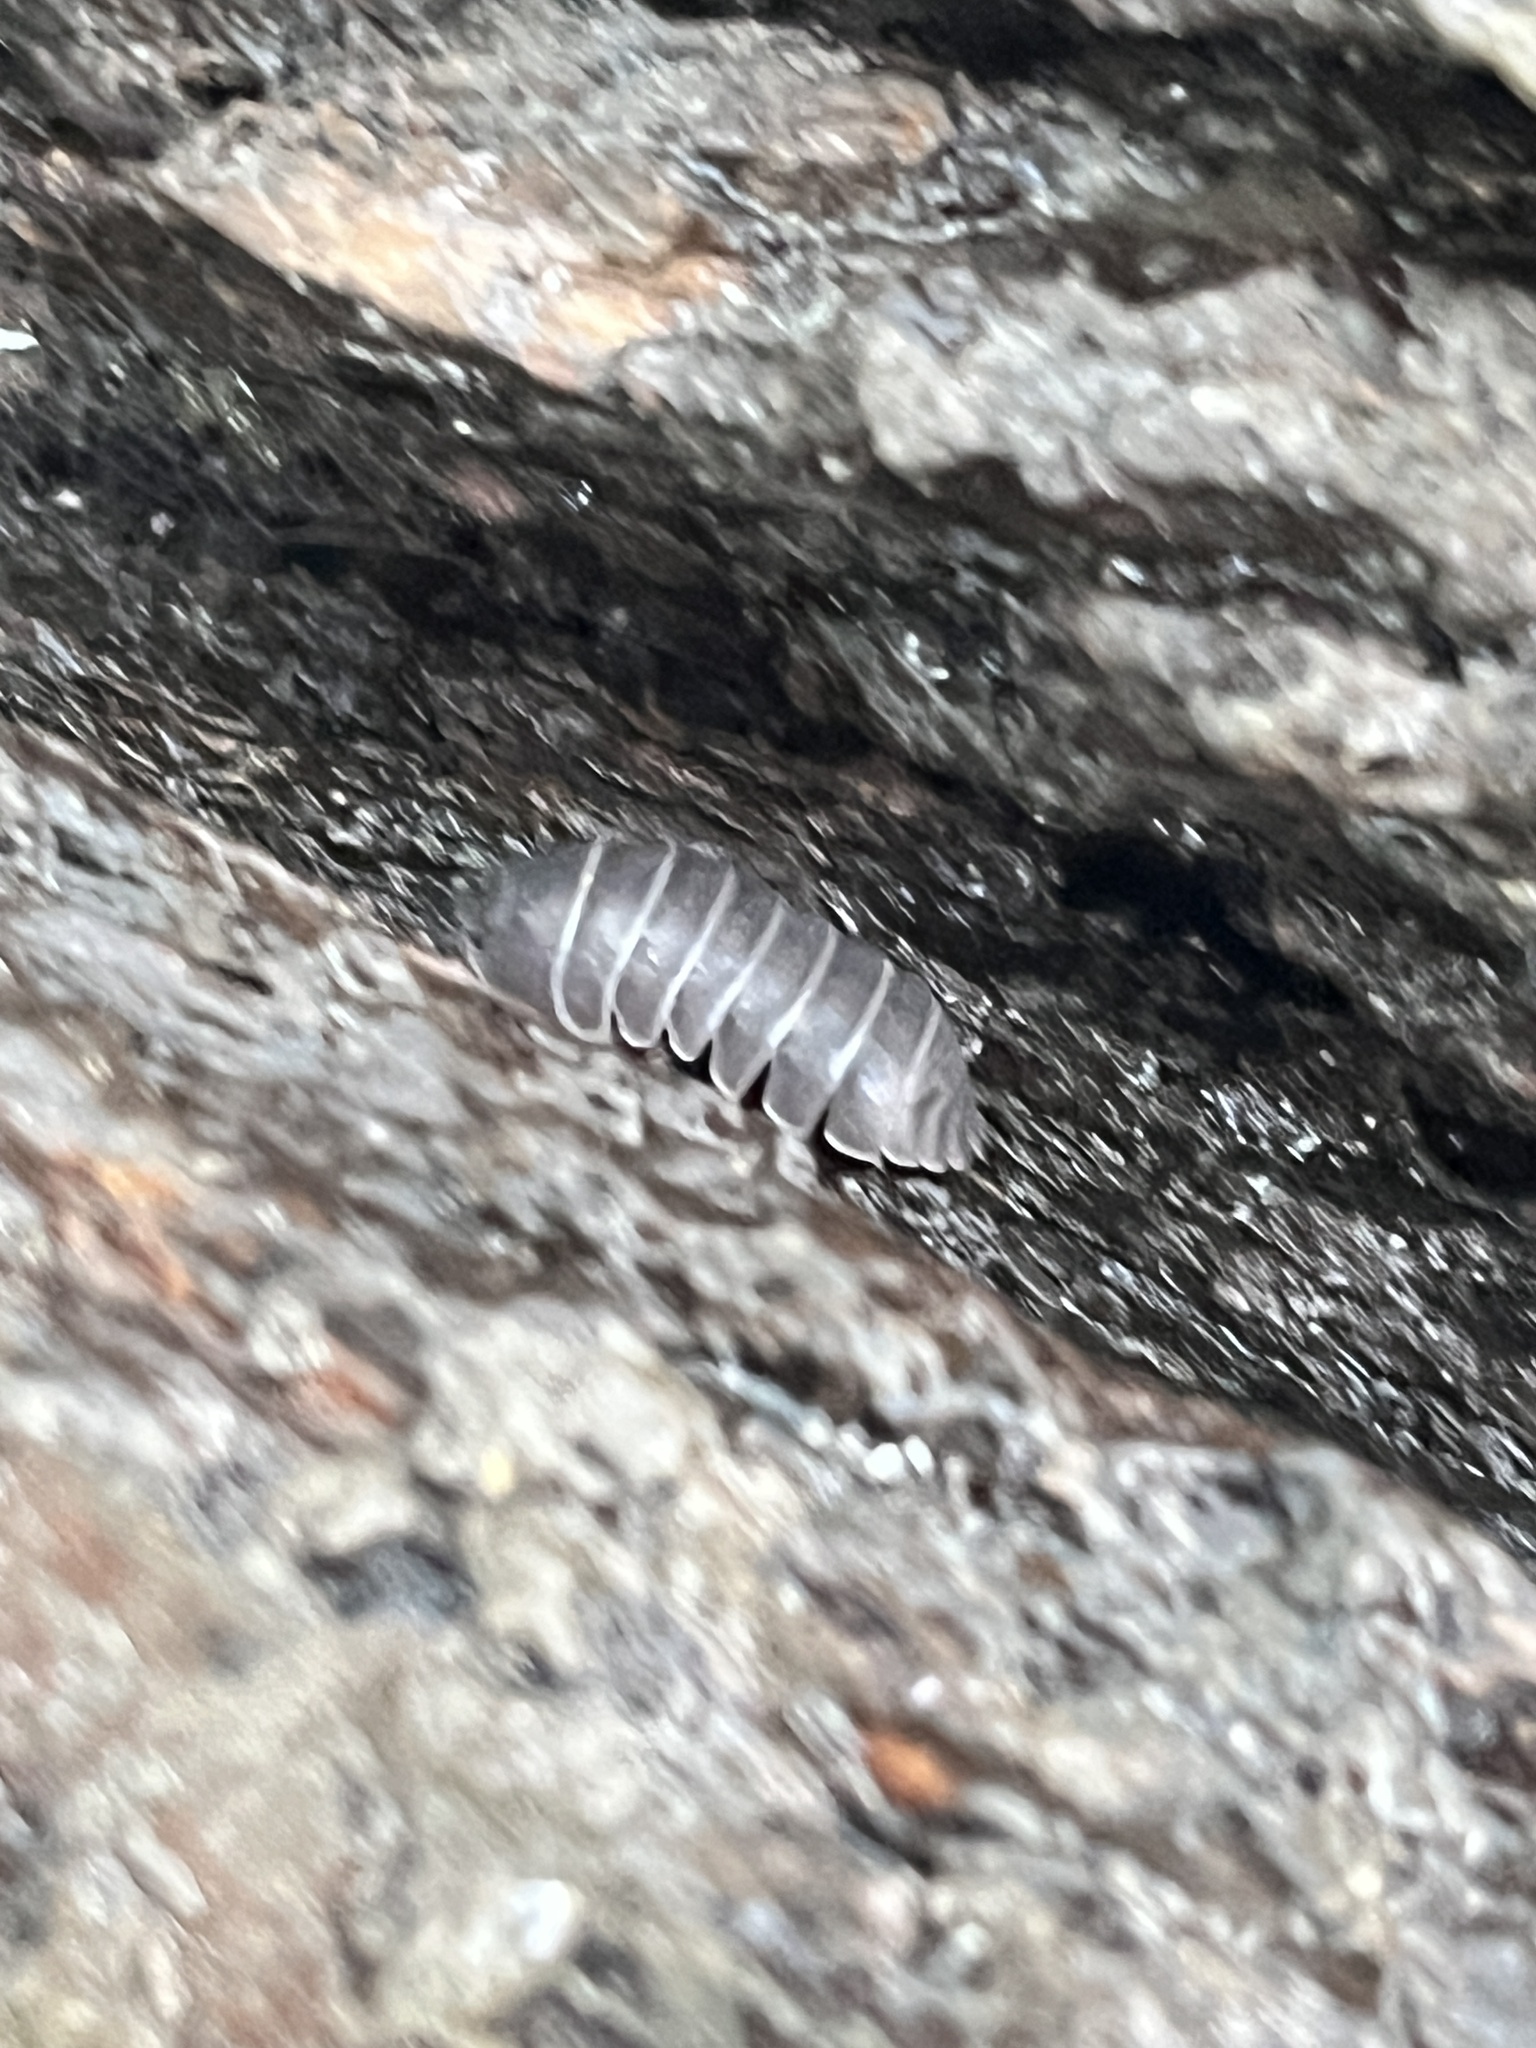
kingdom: Animalia
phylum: Arthropoda
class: Malacostraca
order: Isopoda
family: Armadillidiidae
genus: Armadillidium
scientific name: Armadillidium vulgare
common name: Common pill woodlouse
